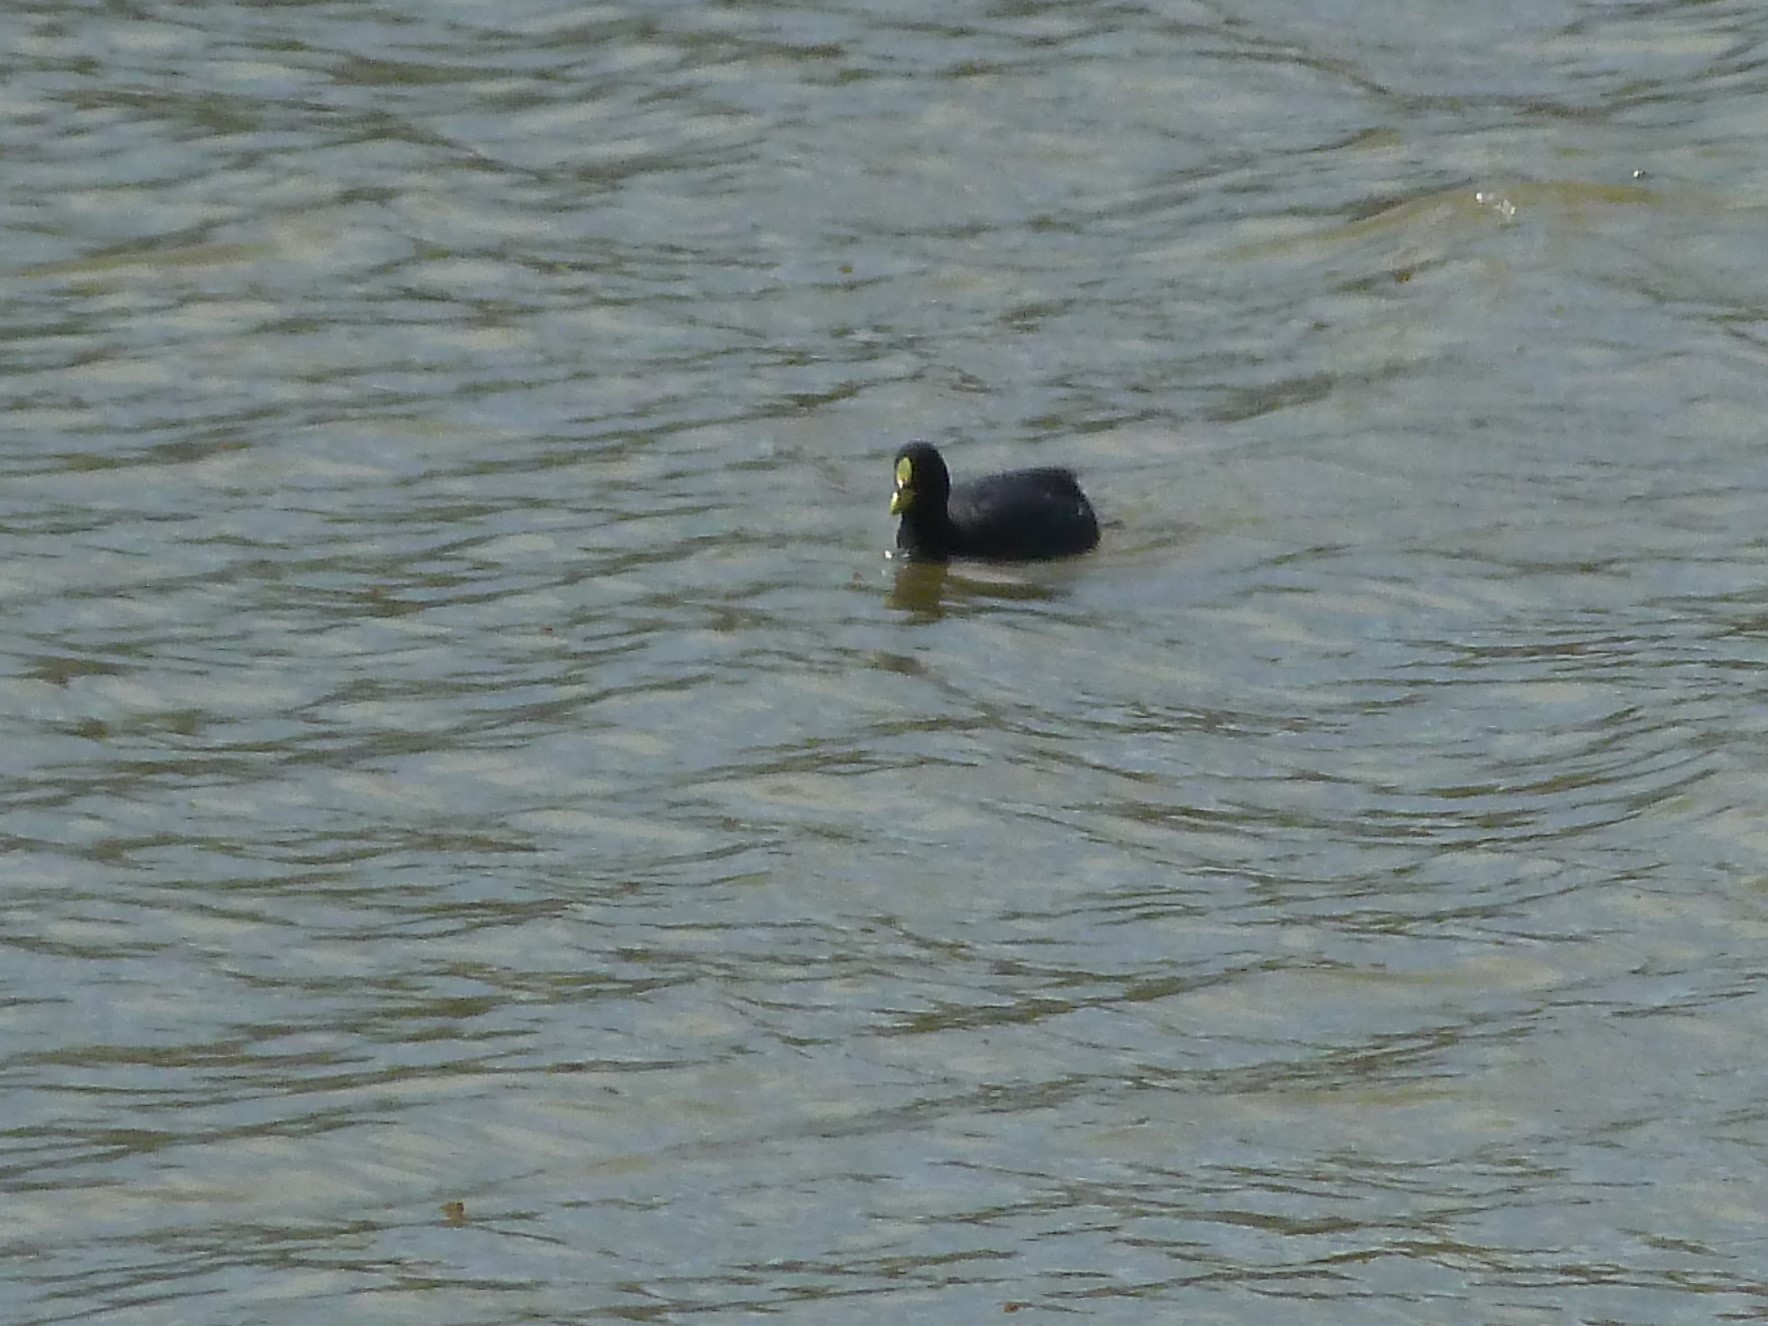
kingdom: Animalia
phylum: Chordata
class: Aves
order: Gruiformes
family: Rallidae
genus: Fulica
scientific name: Fulica armillata
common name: Red-gartered coot
